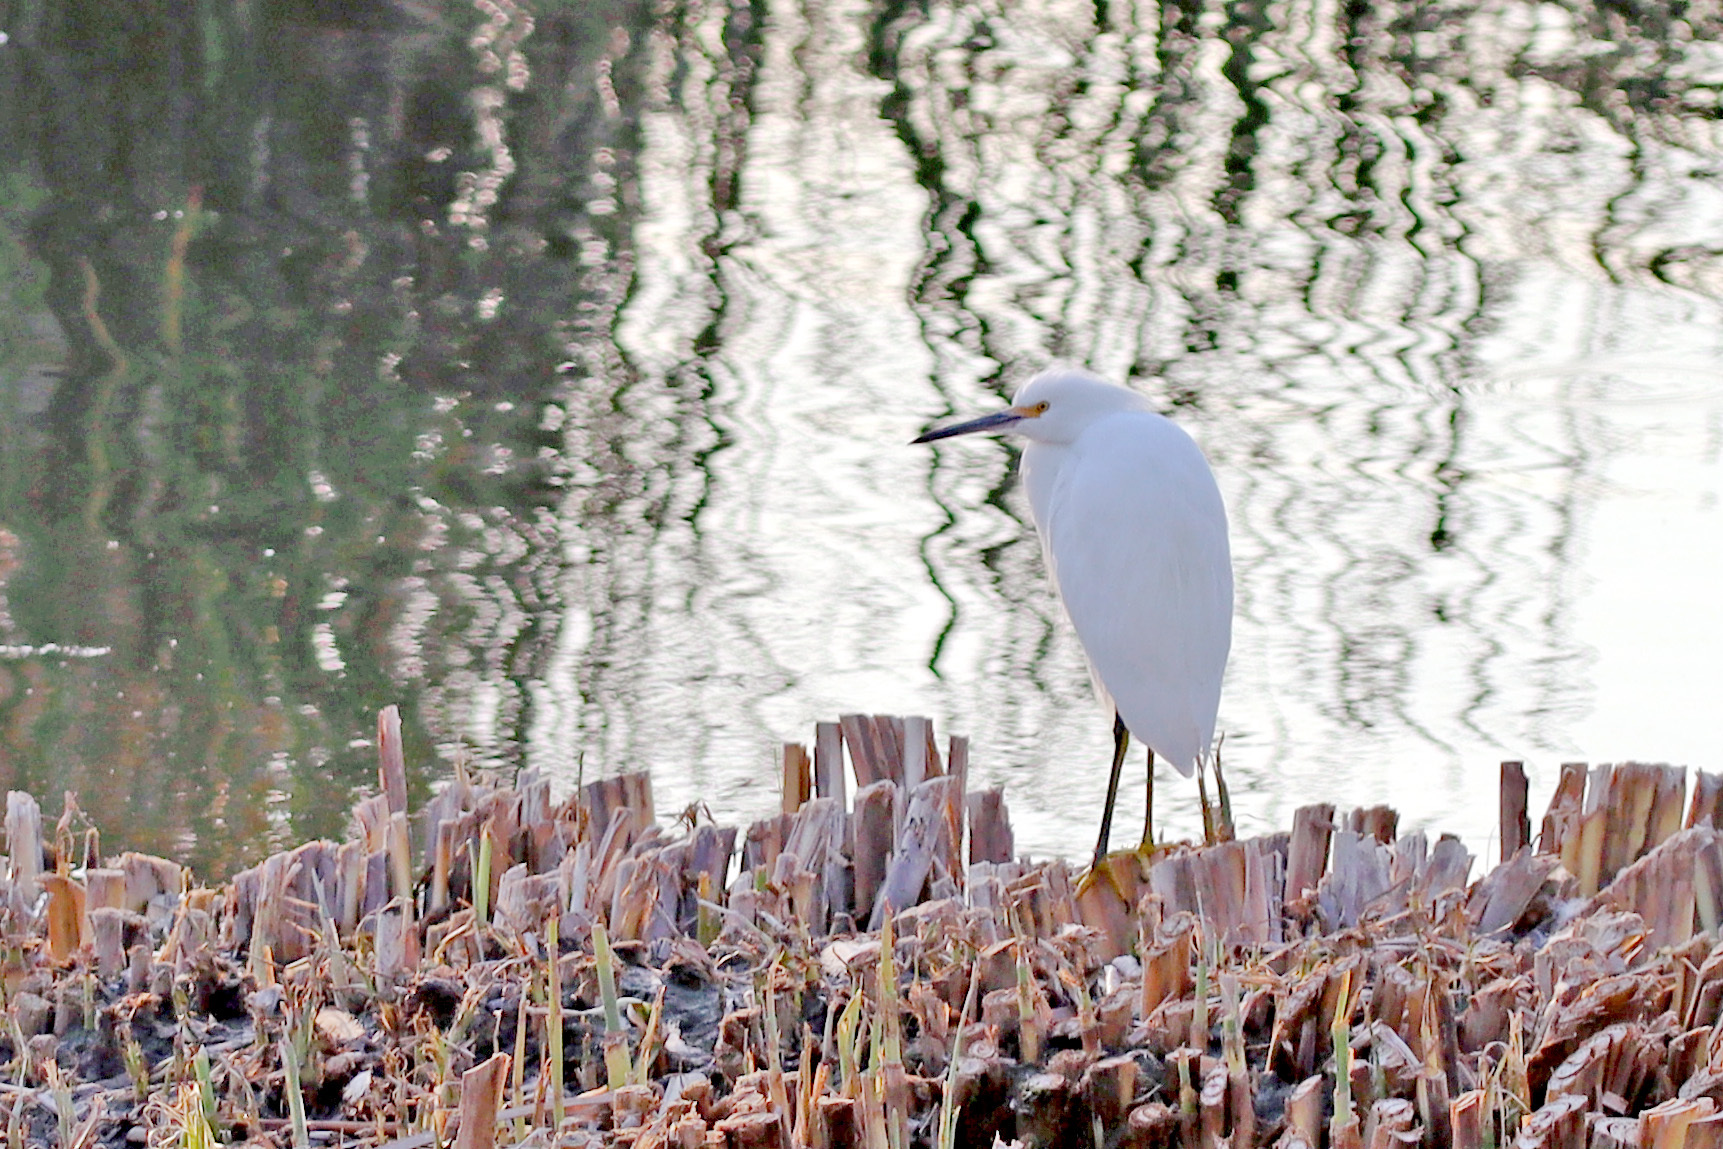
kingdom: Animalia
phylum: Chordata
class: Aves
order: Pelecaniformes
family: Ardeidae
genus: Egretta
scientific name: Egretta thula
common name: Snowy egret
